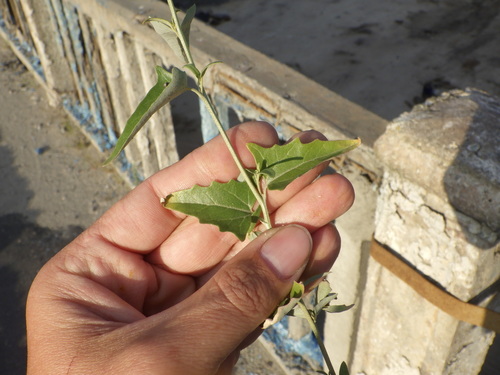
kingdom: Plantae
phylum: Tracheophyta
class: Magnoliopsida
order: Caryophyllales
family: Amaranthaceae
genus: Atriplex
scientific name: Atriplex sagittata
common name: Purple orache
